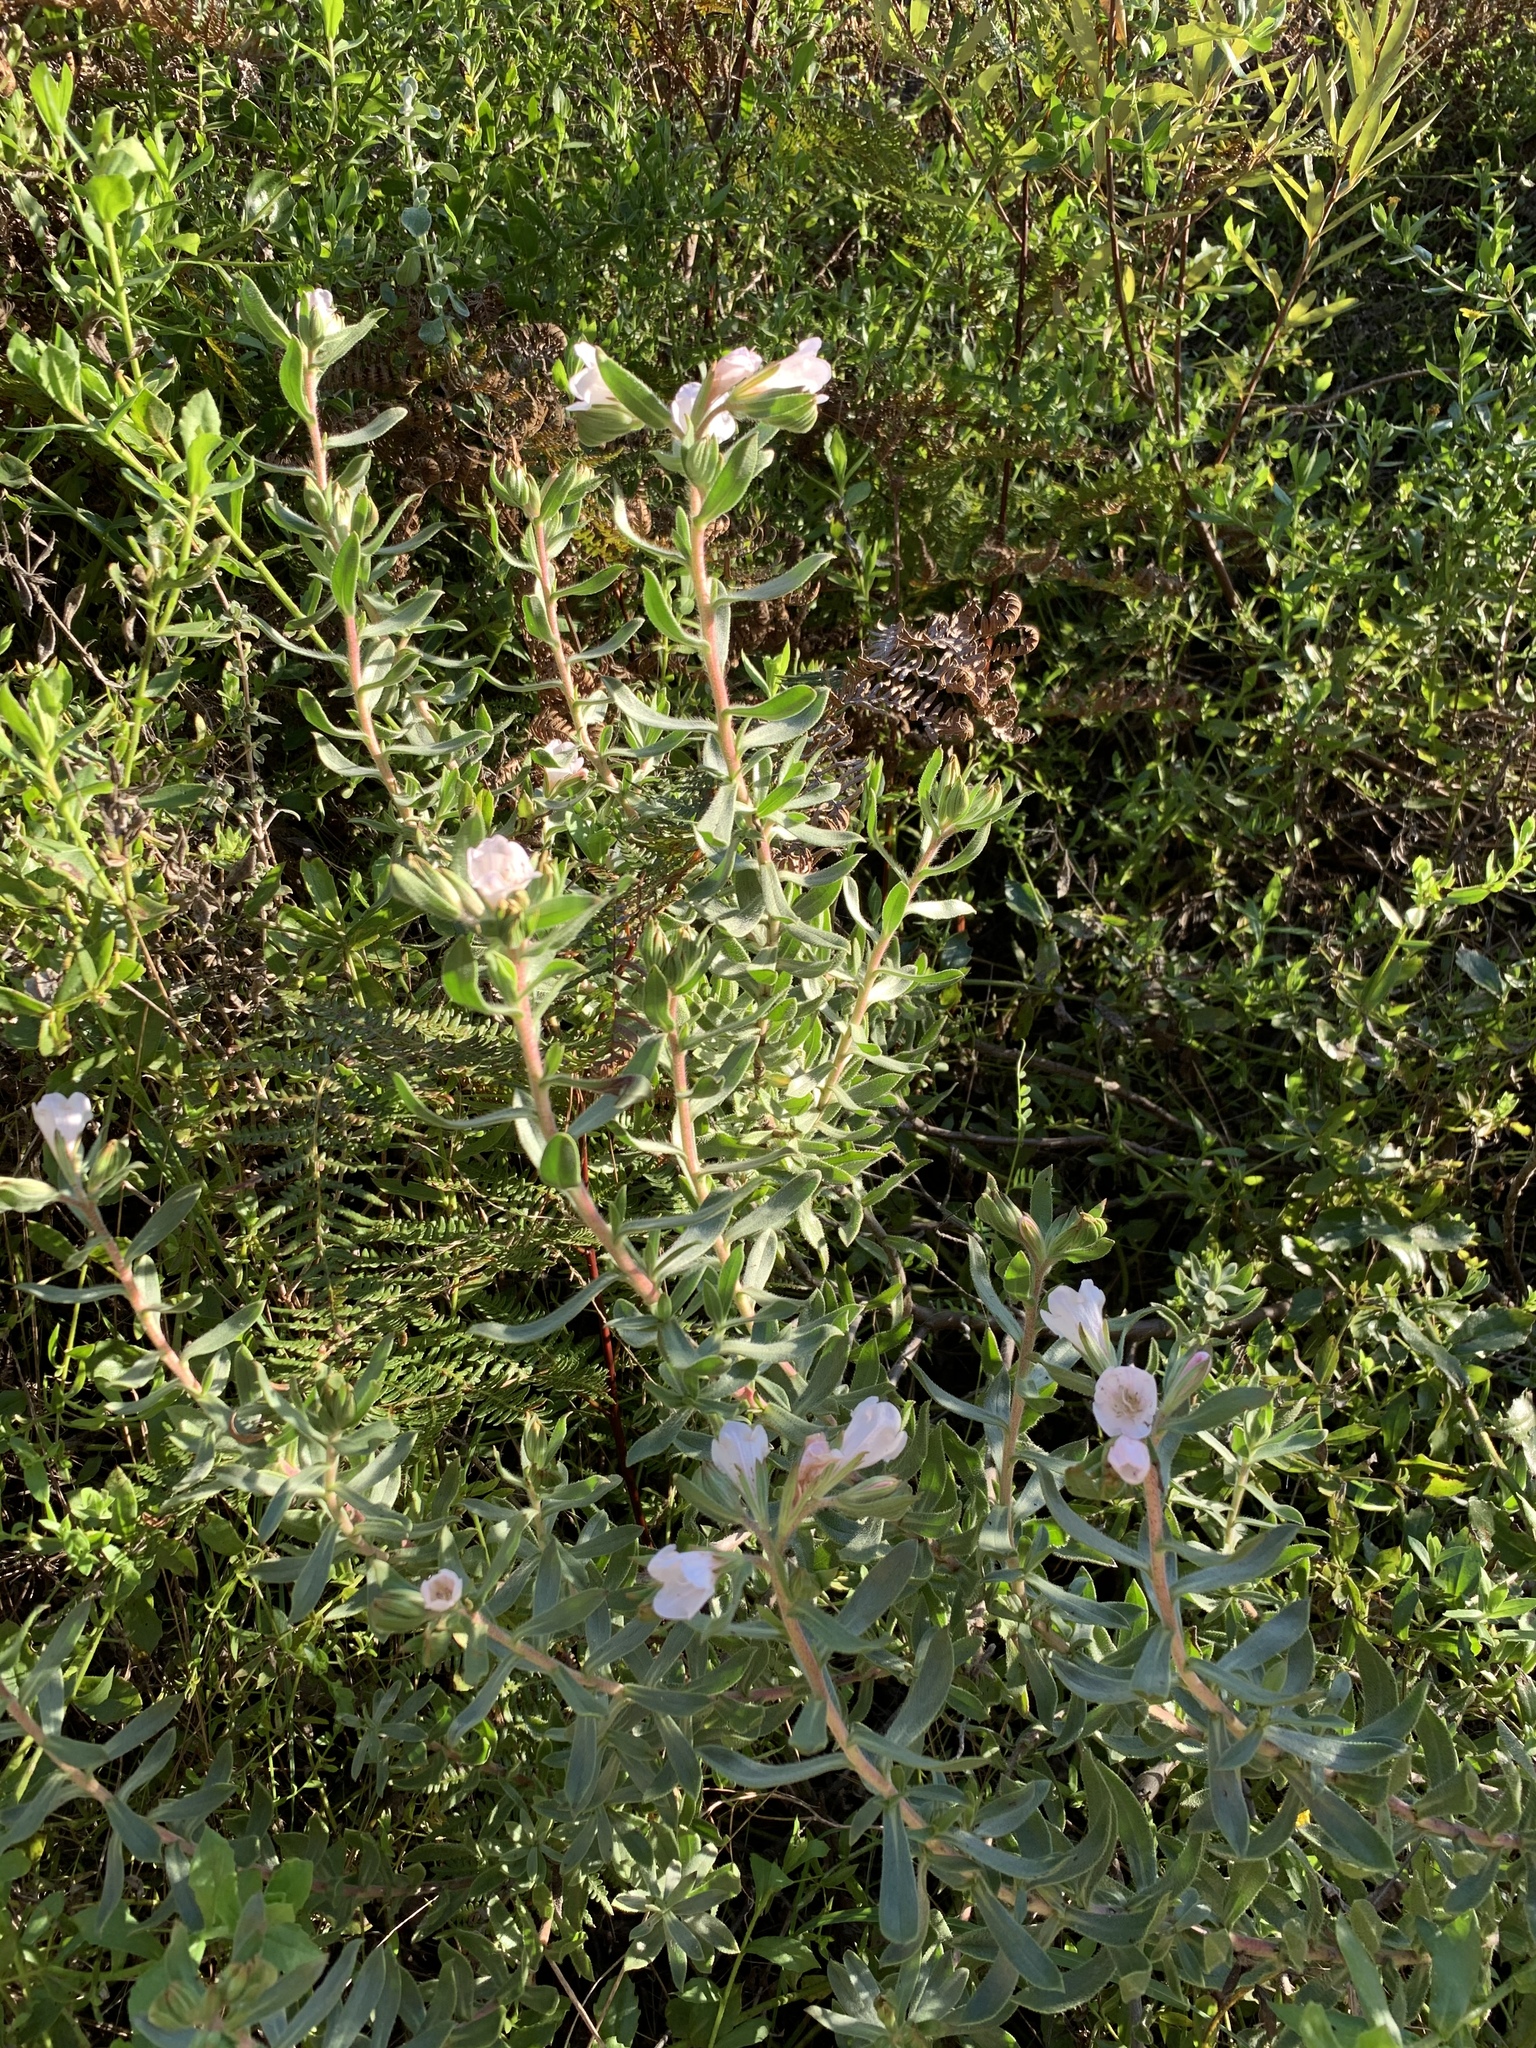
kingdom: Plantae
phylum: Tracheophyta
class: Magnoliopsida
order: Boraginales
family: Boraginaceae
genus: Lobostemon
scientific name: Lobostemon fruticosus
